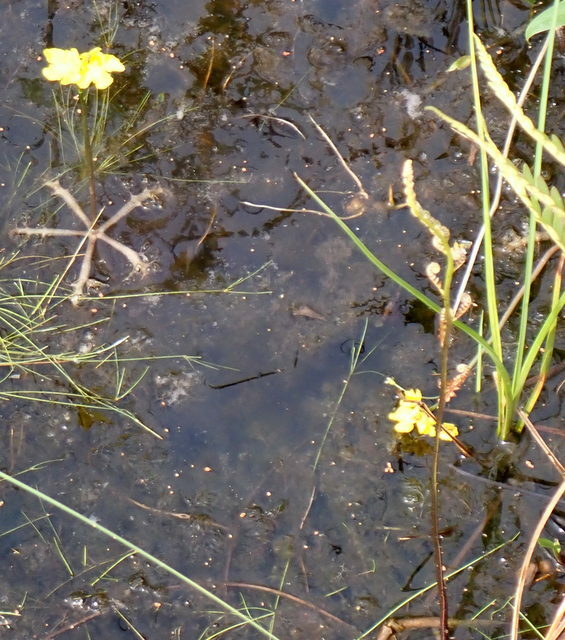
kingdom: Plantae
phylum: Tracheophyta
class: Magnoliopsida
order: Lamiales
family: Lentibulariaceae
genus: Utricularia
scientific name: Utricularia inflata
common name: Floating bladderwort
